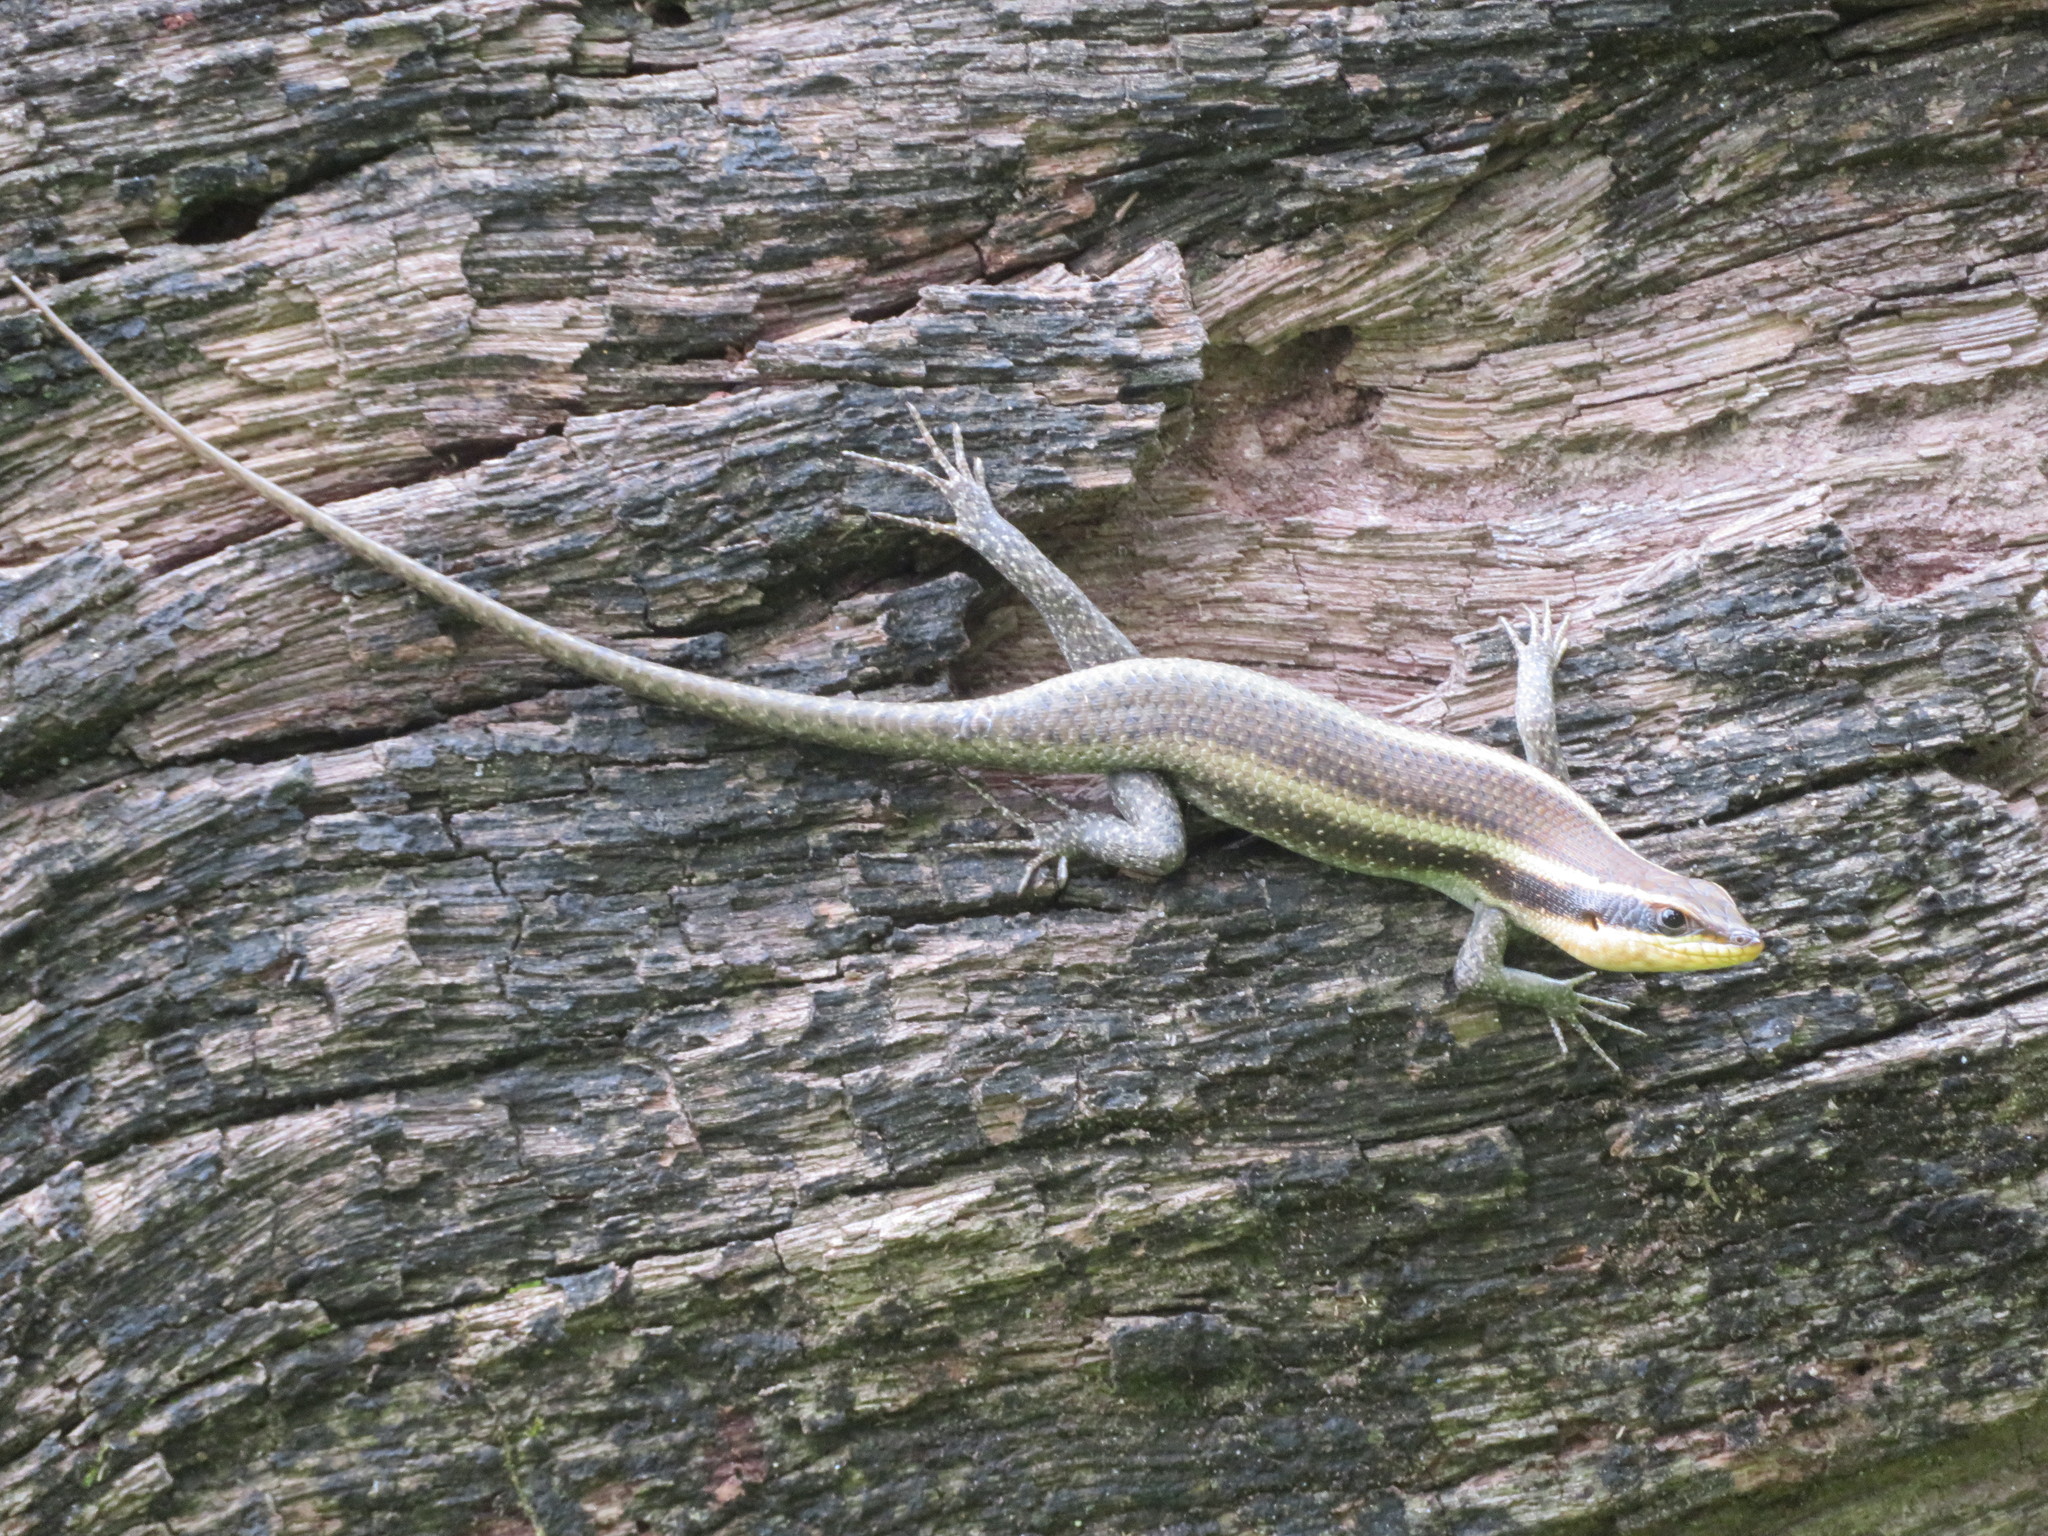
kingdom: Animalia
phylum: Chordata
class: Squamata
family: Scincidae
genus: Trachylepis
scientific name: Trachylepis striata
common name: African striped mabuya
